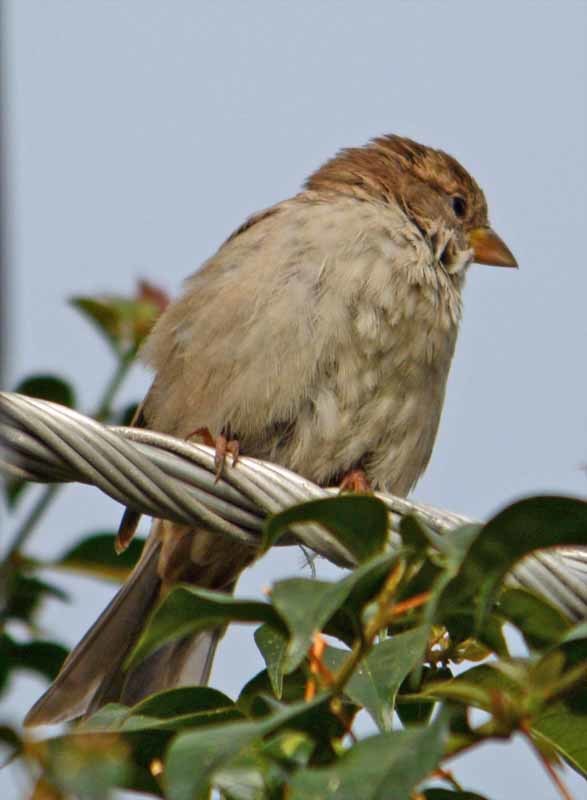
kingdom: Animalia
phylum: Chordata
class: Aves
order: Passeriformes
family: Passeridae
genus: Passer
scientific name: Passer domesticus
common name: House sparrow
